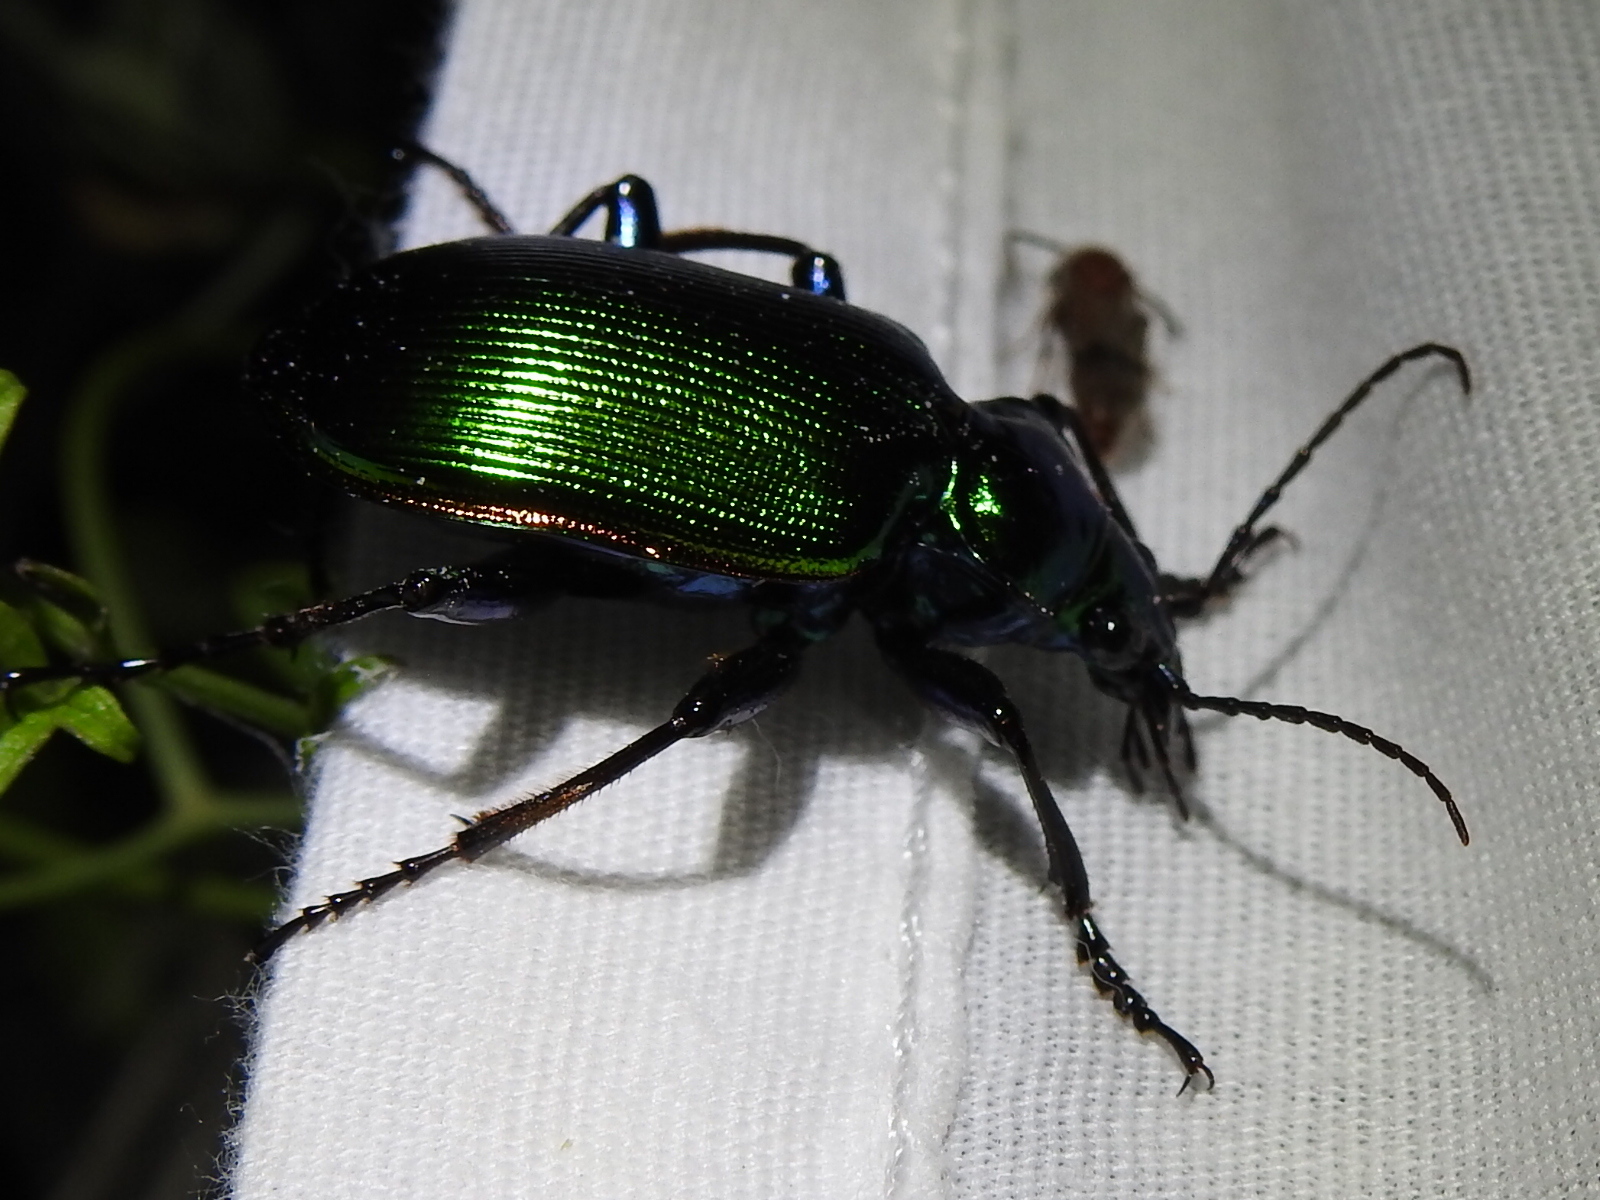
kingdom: Animalia
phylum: Arthropoda
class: Insecta
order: Coleoptera
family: Carabidae
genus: Calosoma
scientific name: Calosoma aurocinctum
